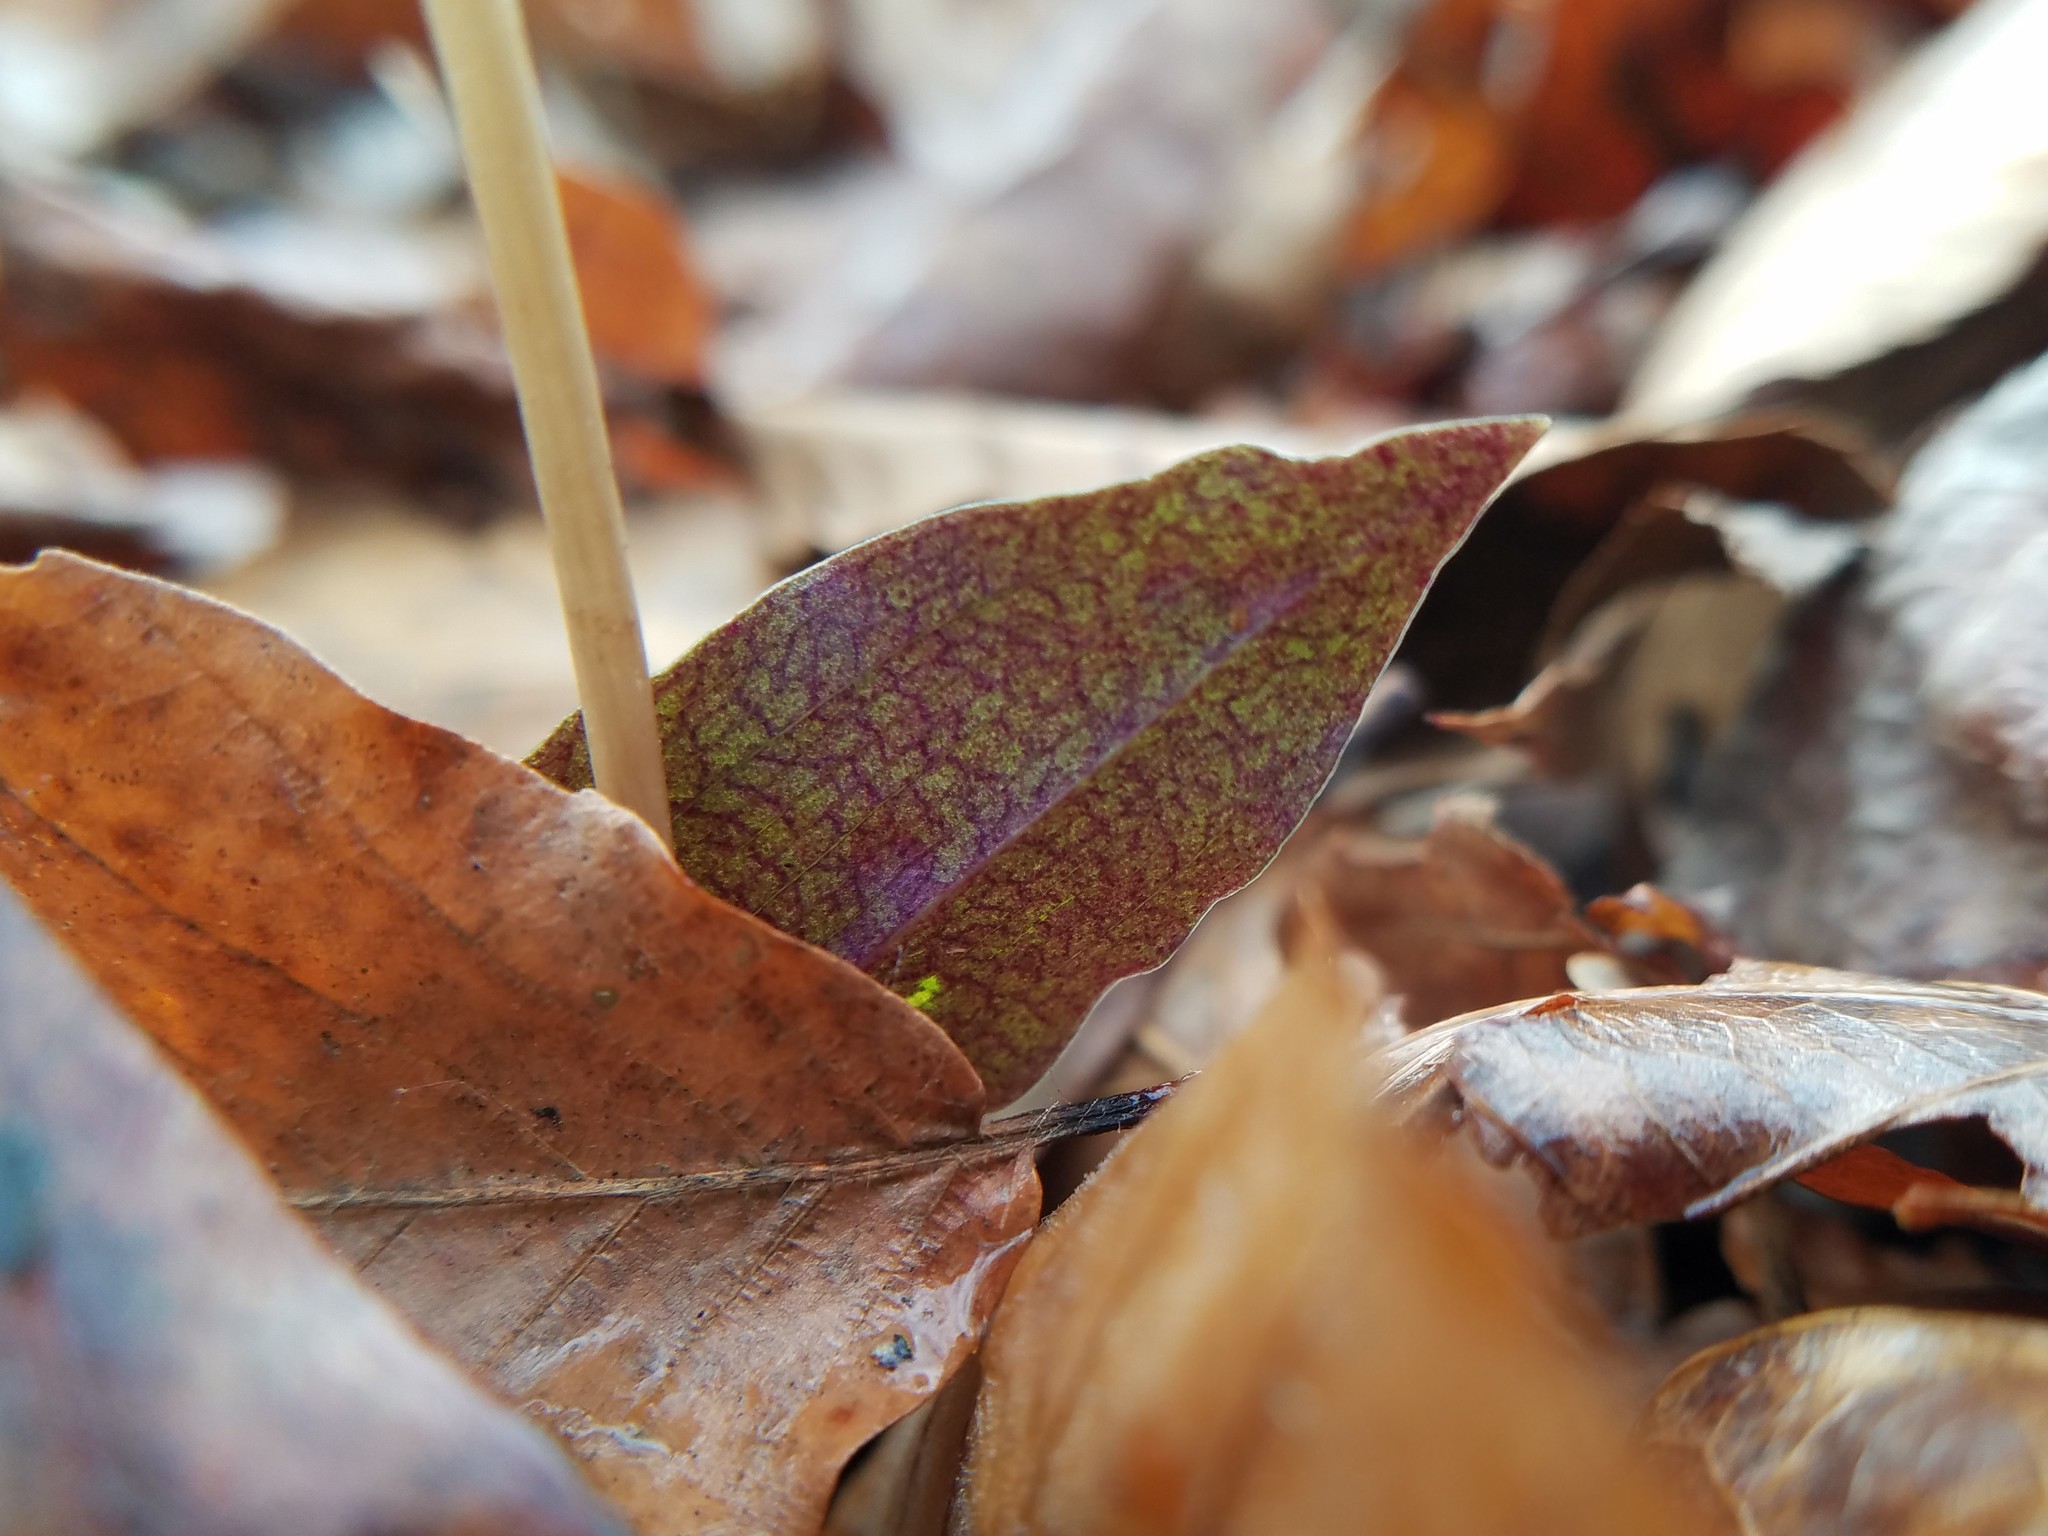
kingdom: Plantae
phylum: Tracheophyta
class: Liliopsida
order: Asparagales
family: Orchidaceae
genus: Tipularia
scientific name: Tipularia discolor
